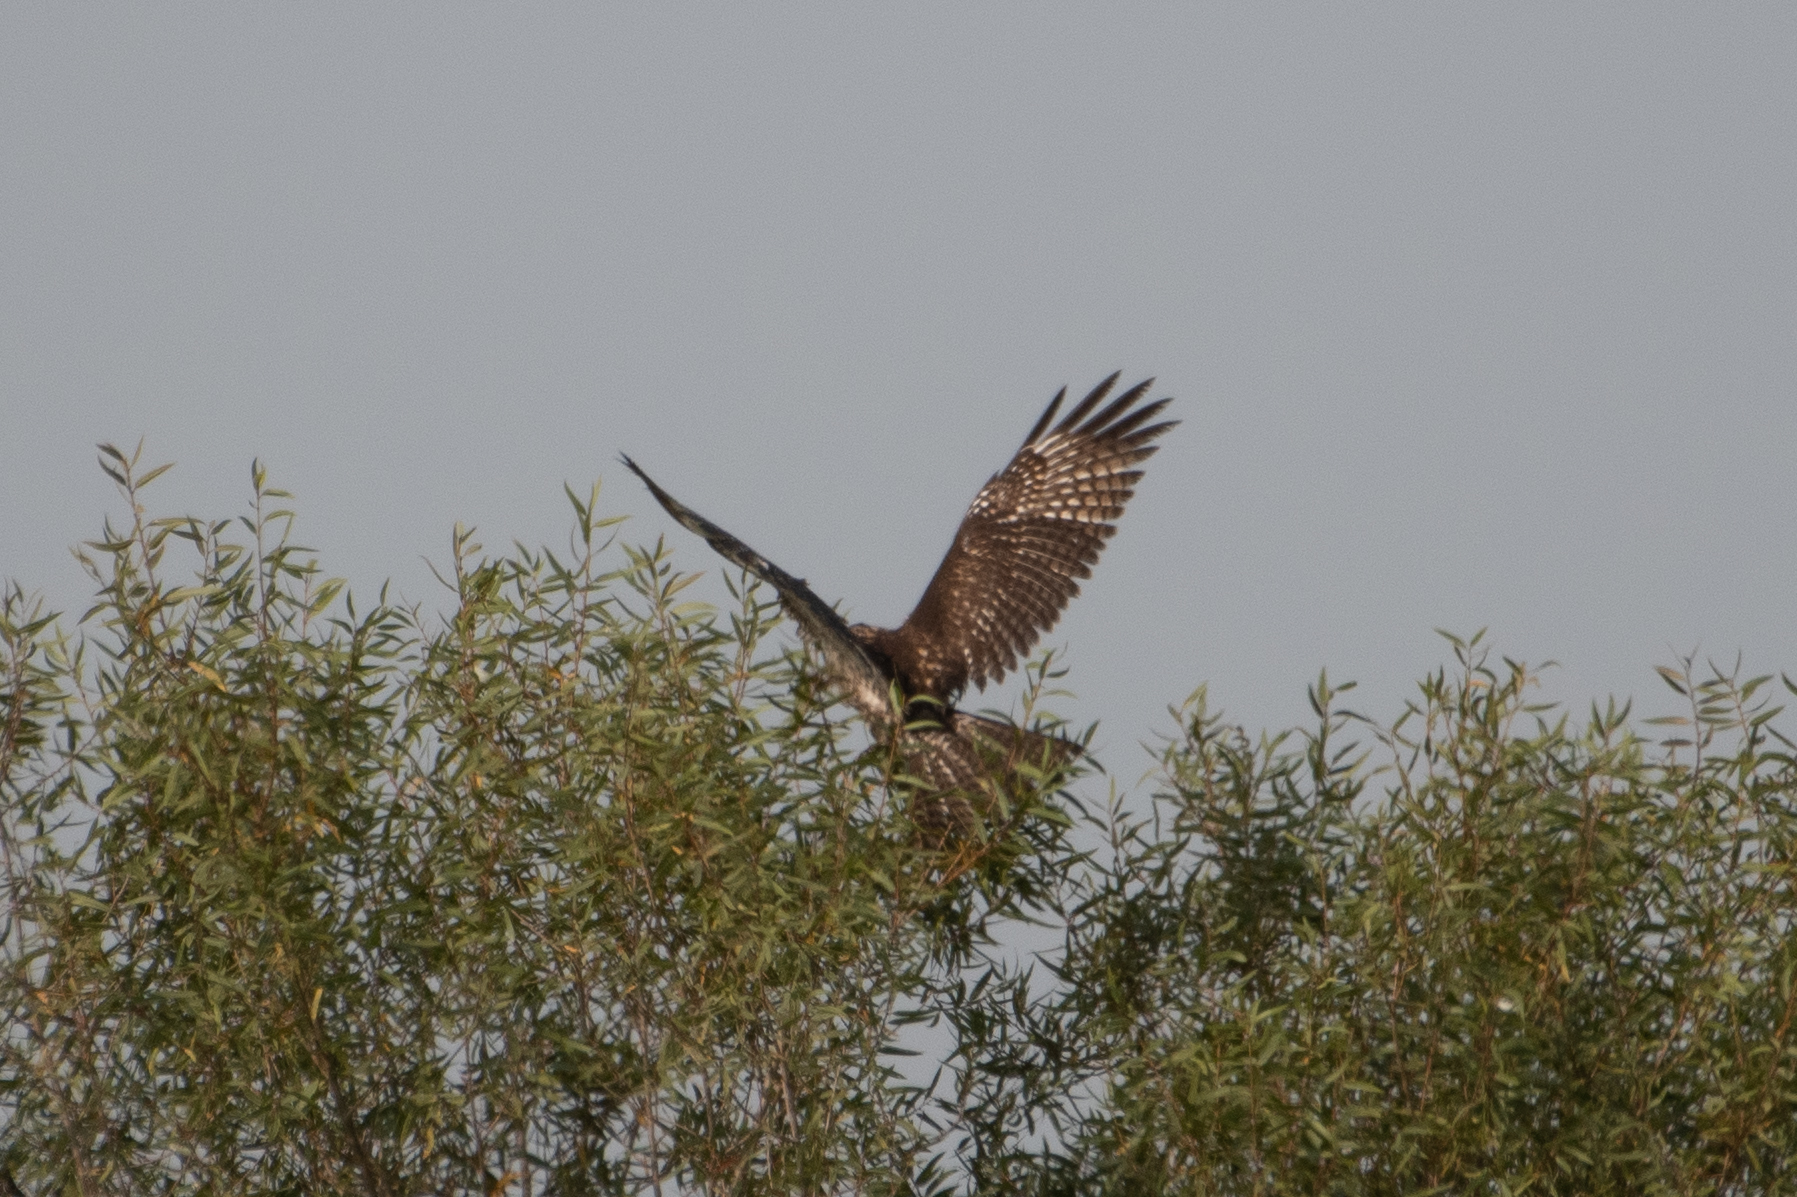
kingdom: Animalia
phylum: Chordata
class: Aves
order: Accipitriformes
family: Accipitridae
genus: Buteo
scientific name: Buteo jamaicensis
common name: Red-tailed hawk
